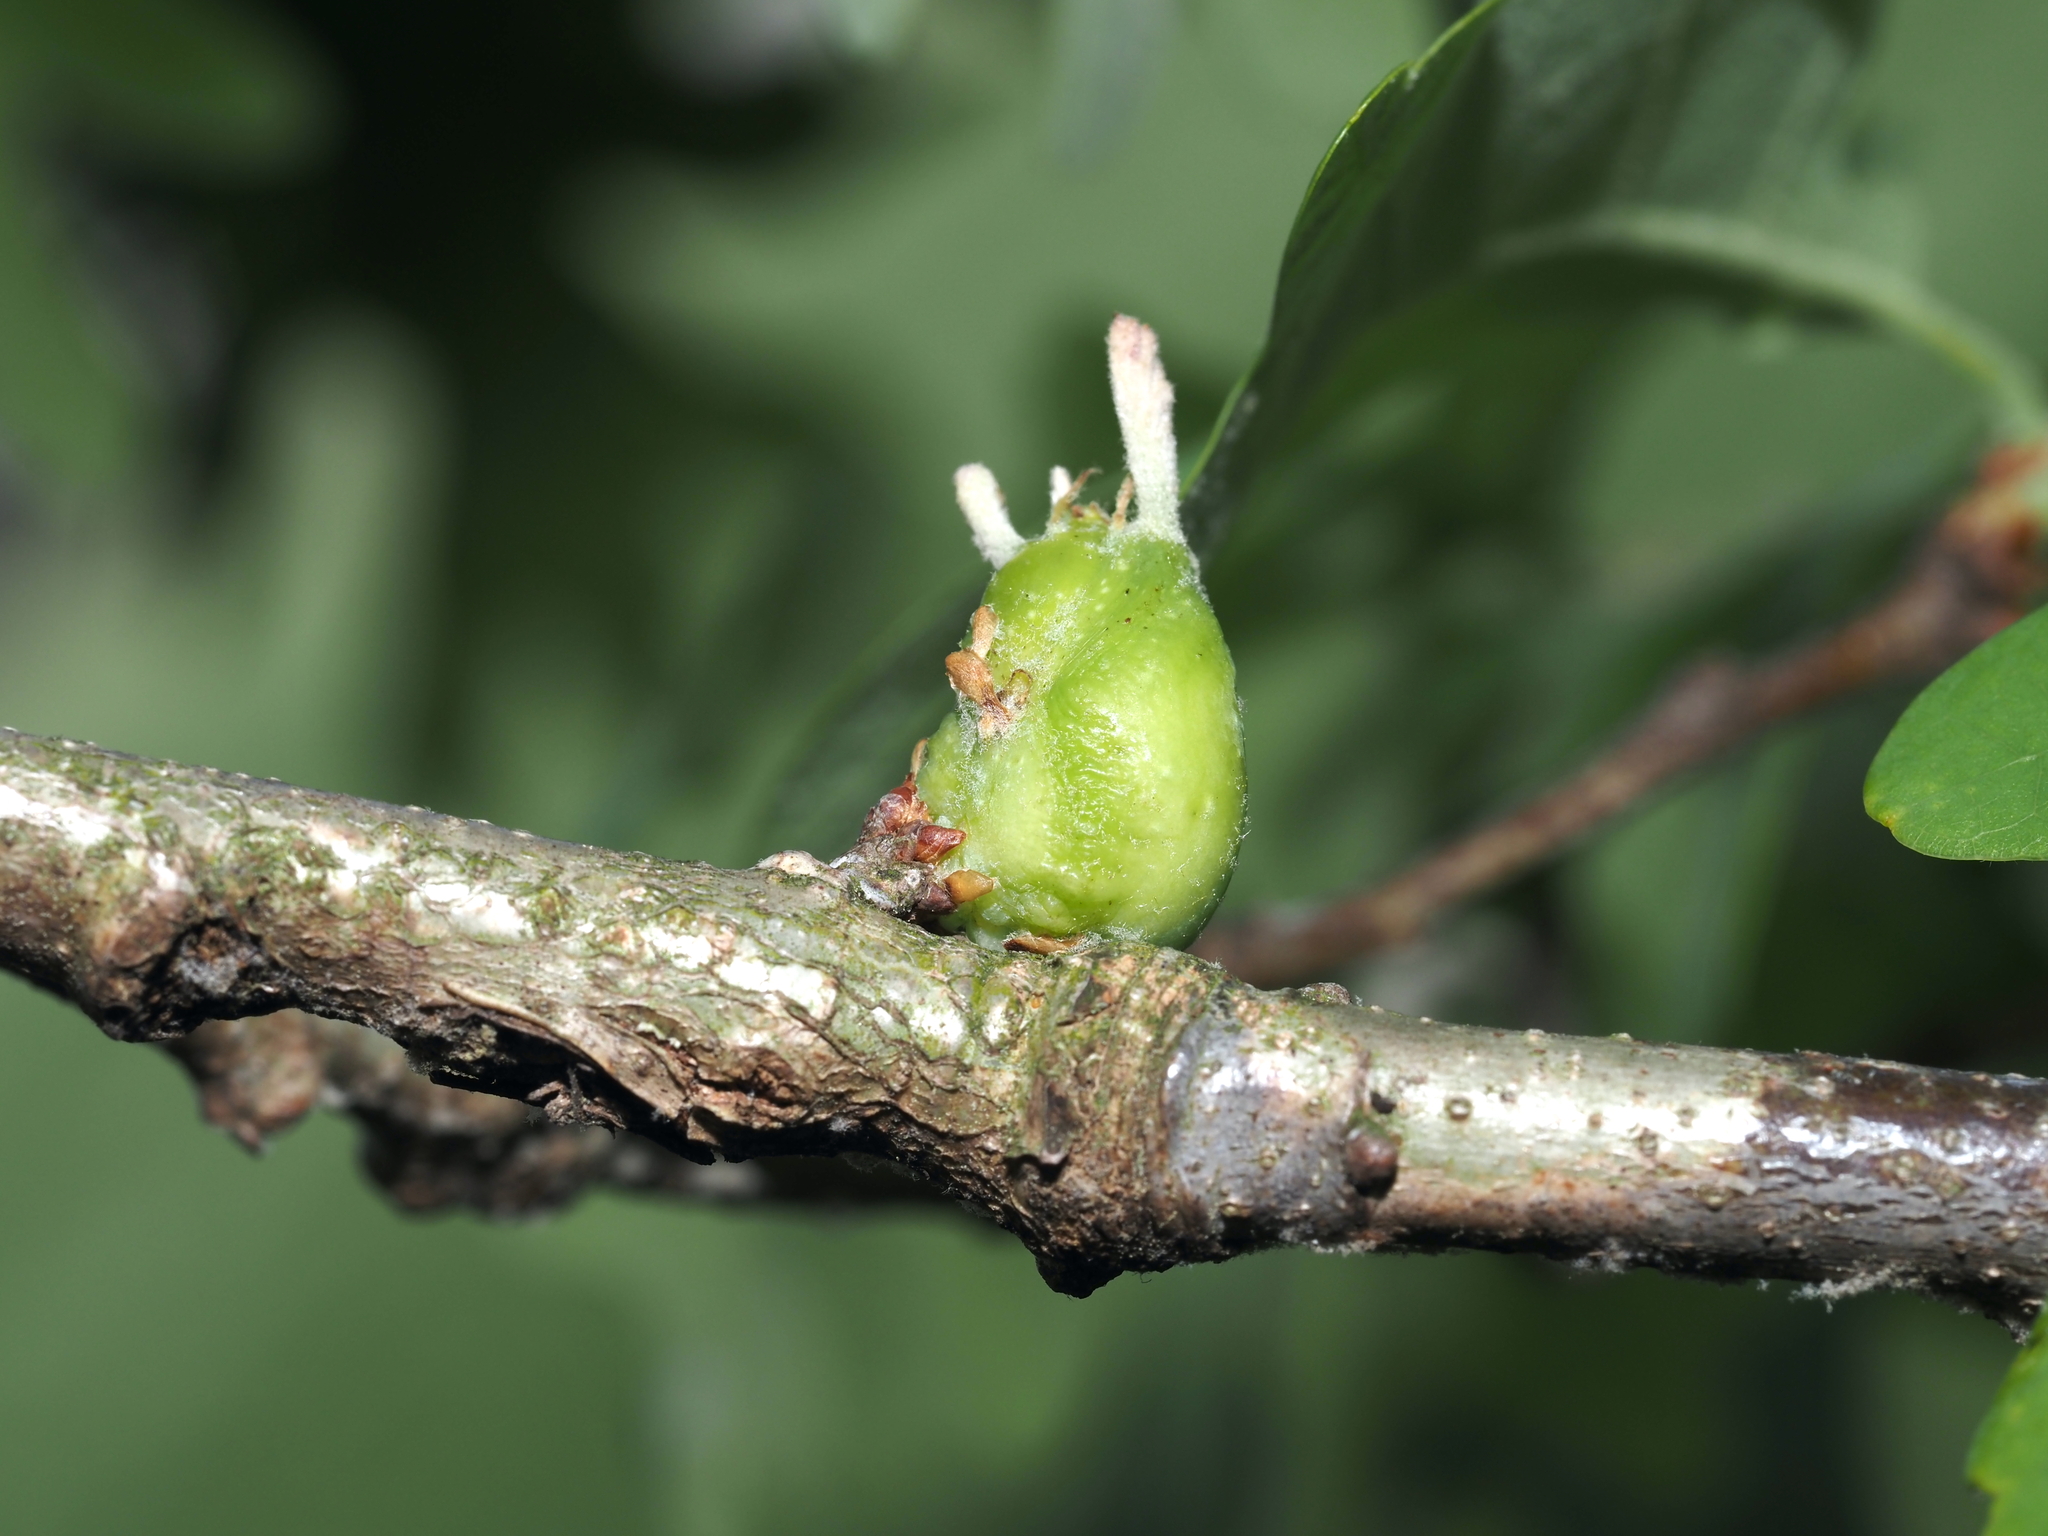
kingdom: Animalia
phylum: Arthropoda
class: Insecta
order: Hymenoptera
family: Cynipidae
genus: Neuroterus
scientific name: Neuroterus quercusbaccarum
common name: Common spangle gall
